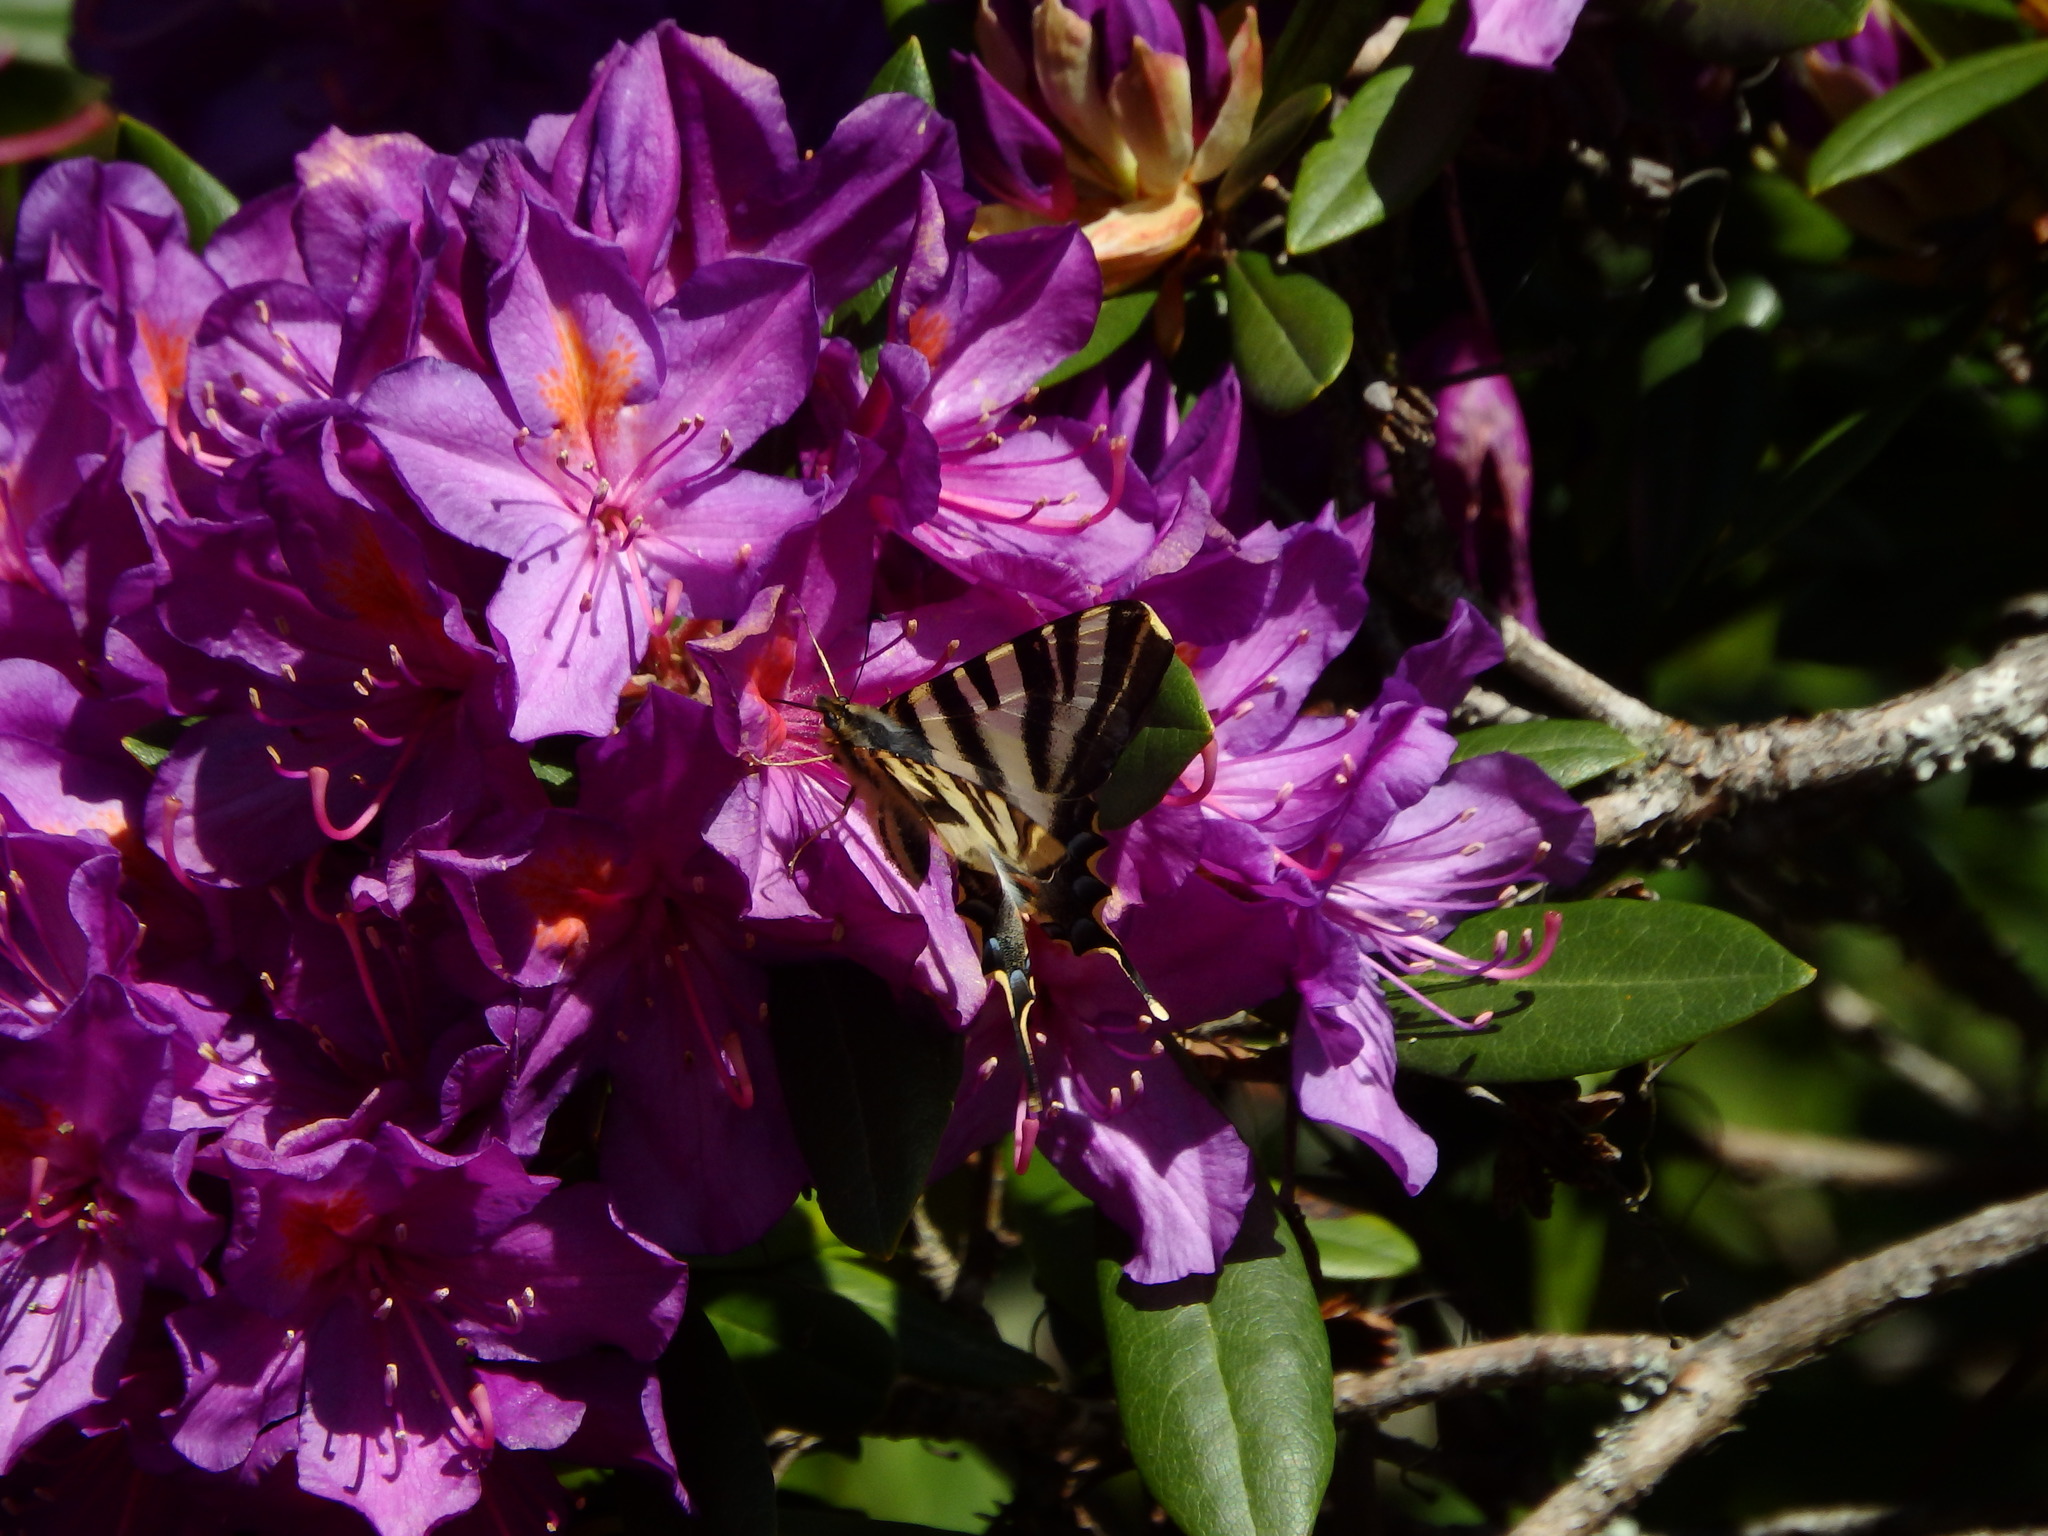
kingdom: Animalia
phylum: Arthropoda
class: Insecta
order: Lepidoptera
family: Papilionidae
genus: Iphiclides
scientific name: Iphiclides feisthamelii
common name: Iberian scarce swallowtail
